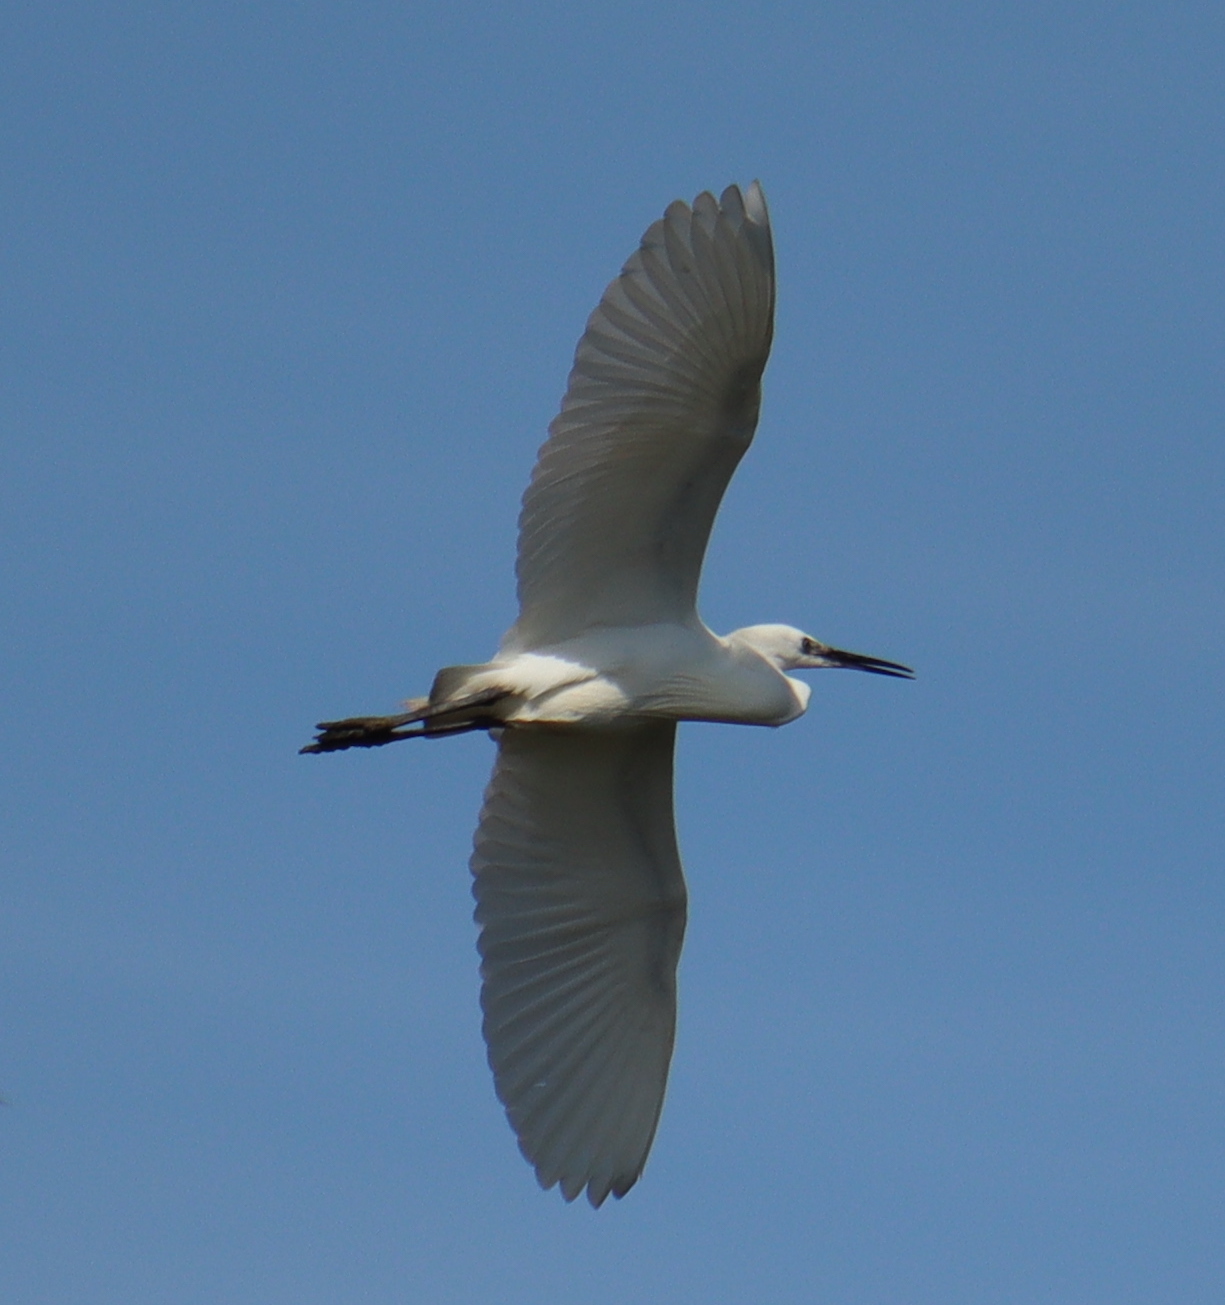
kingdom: Animalia
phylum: Chordata
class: Aves
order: Pelecaniformes
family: Ardeidae
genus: Egretta
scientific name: Egretta garzetta
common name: Little egret
